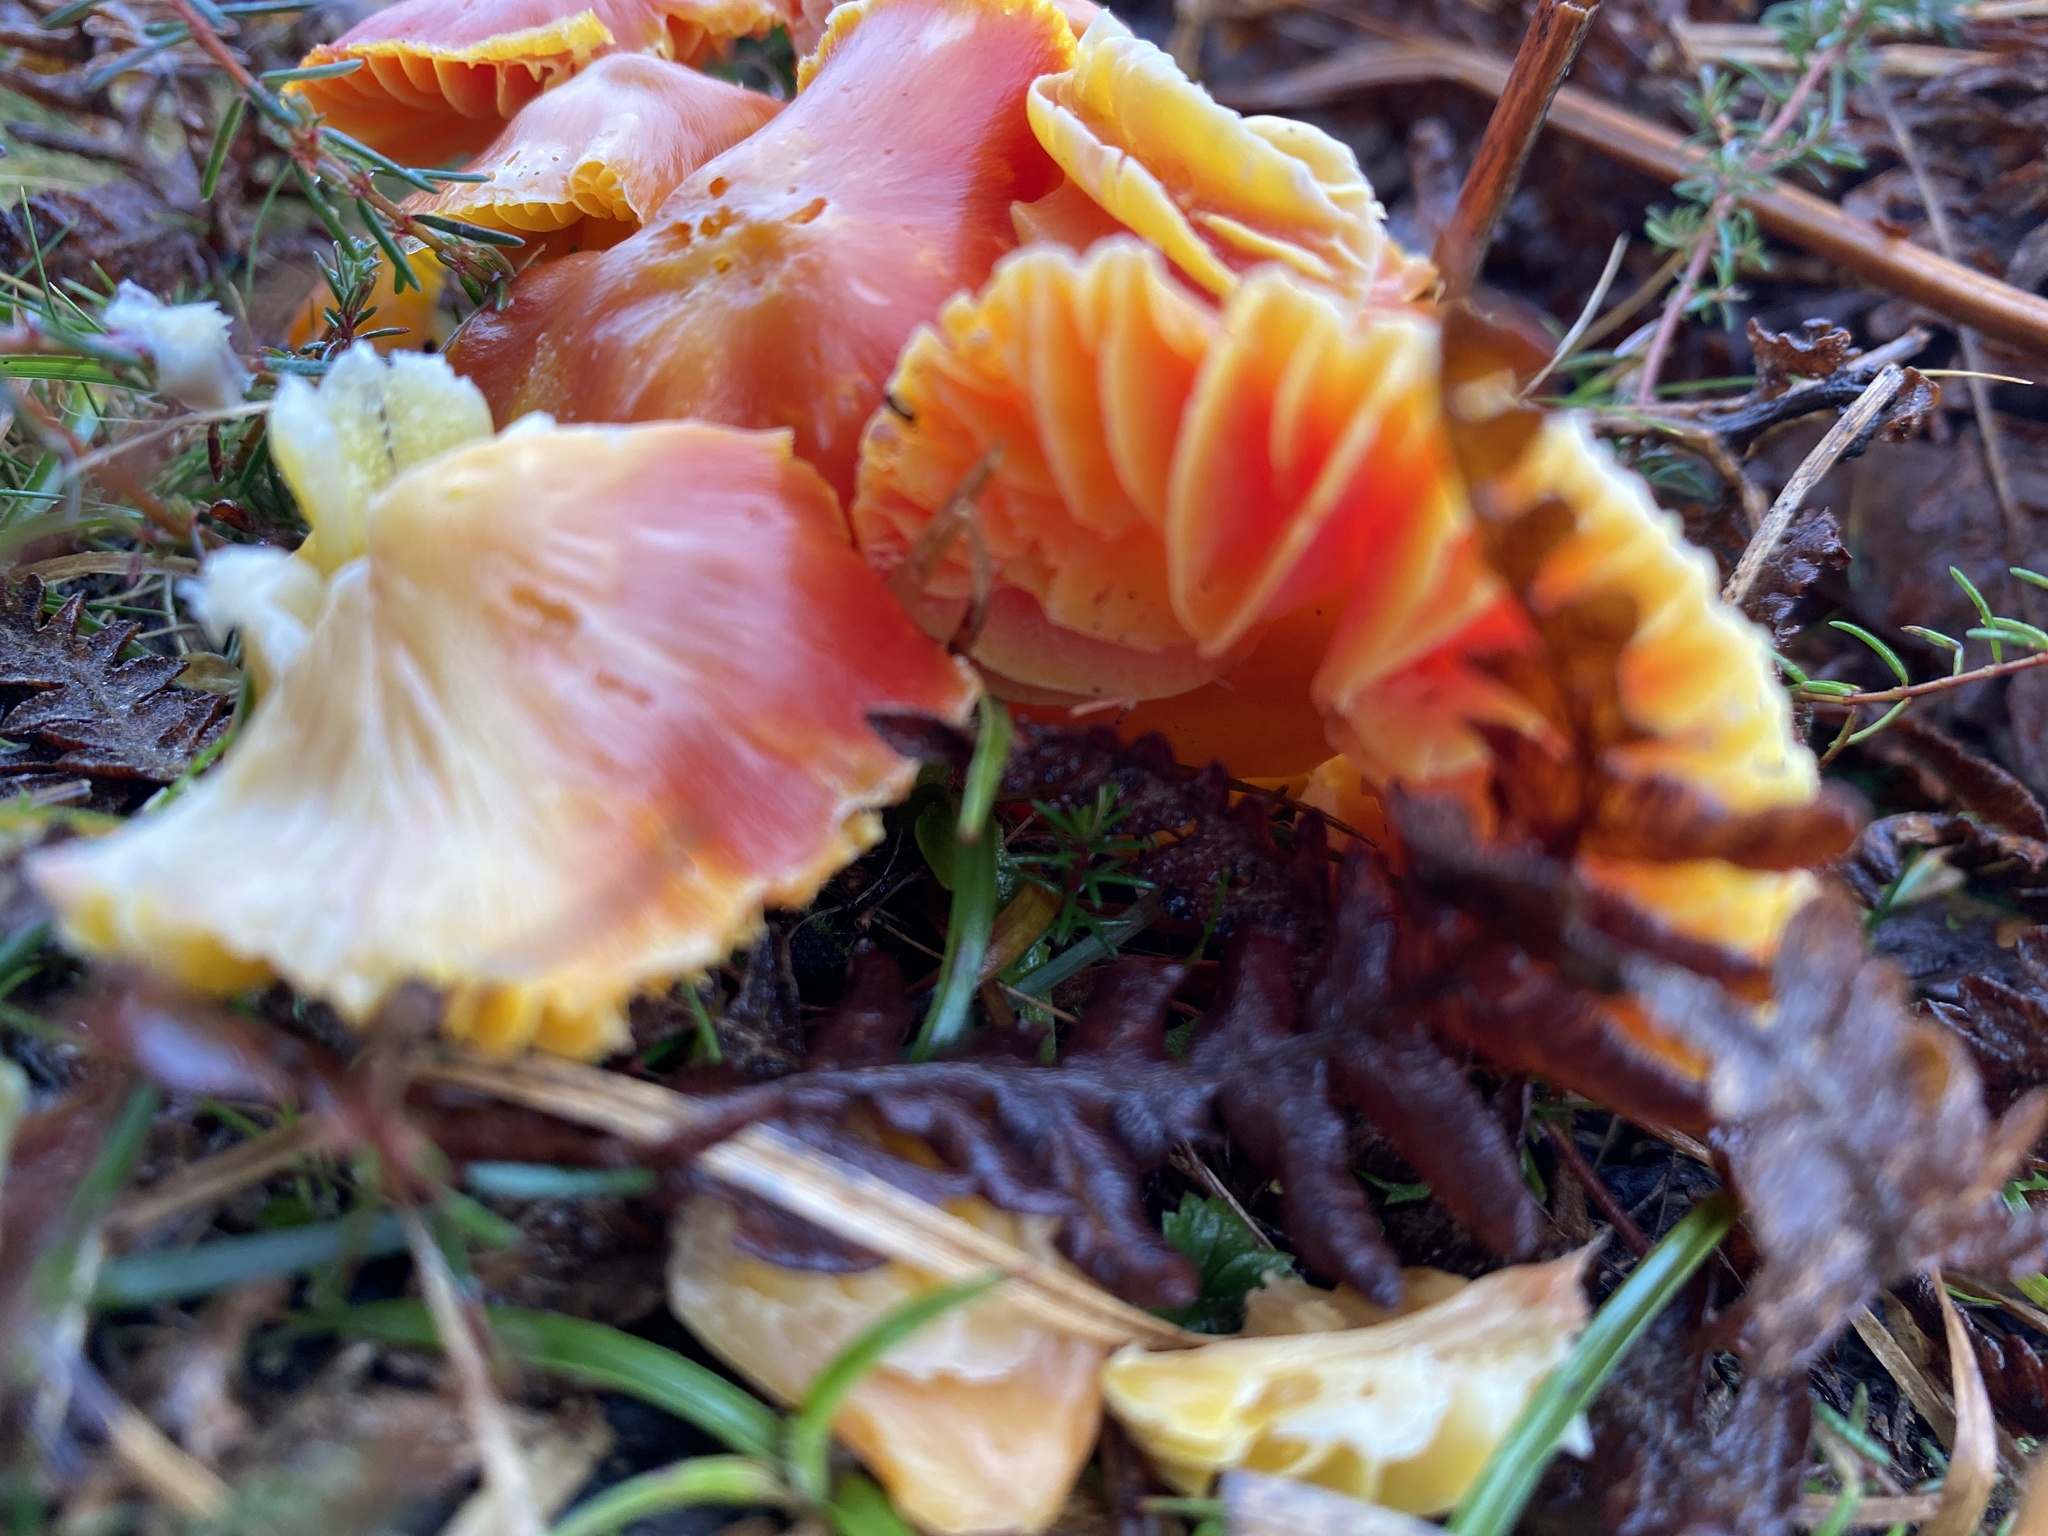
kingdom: Fungi
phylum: Basidiomycota
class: Agaricomycetes
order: Agaricales
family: Hygrophoraceae
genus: Hygrocybe
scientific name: Hygrocybe coccinea
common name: Scarlet hood
